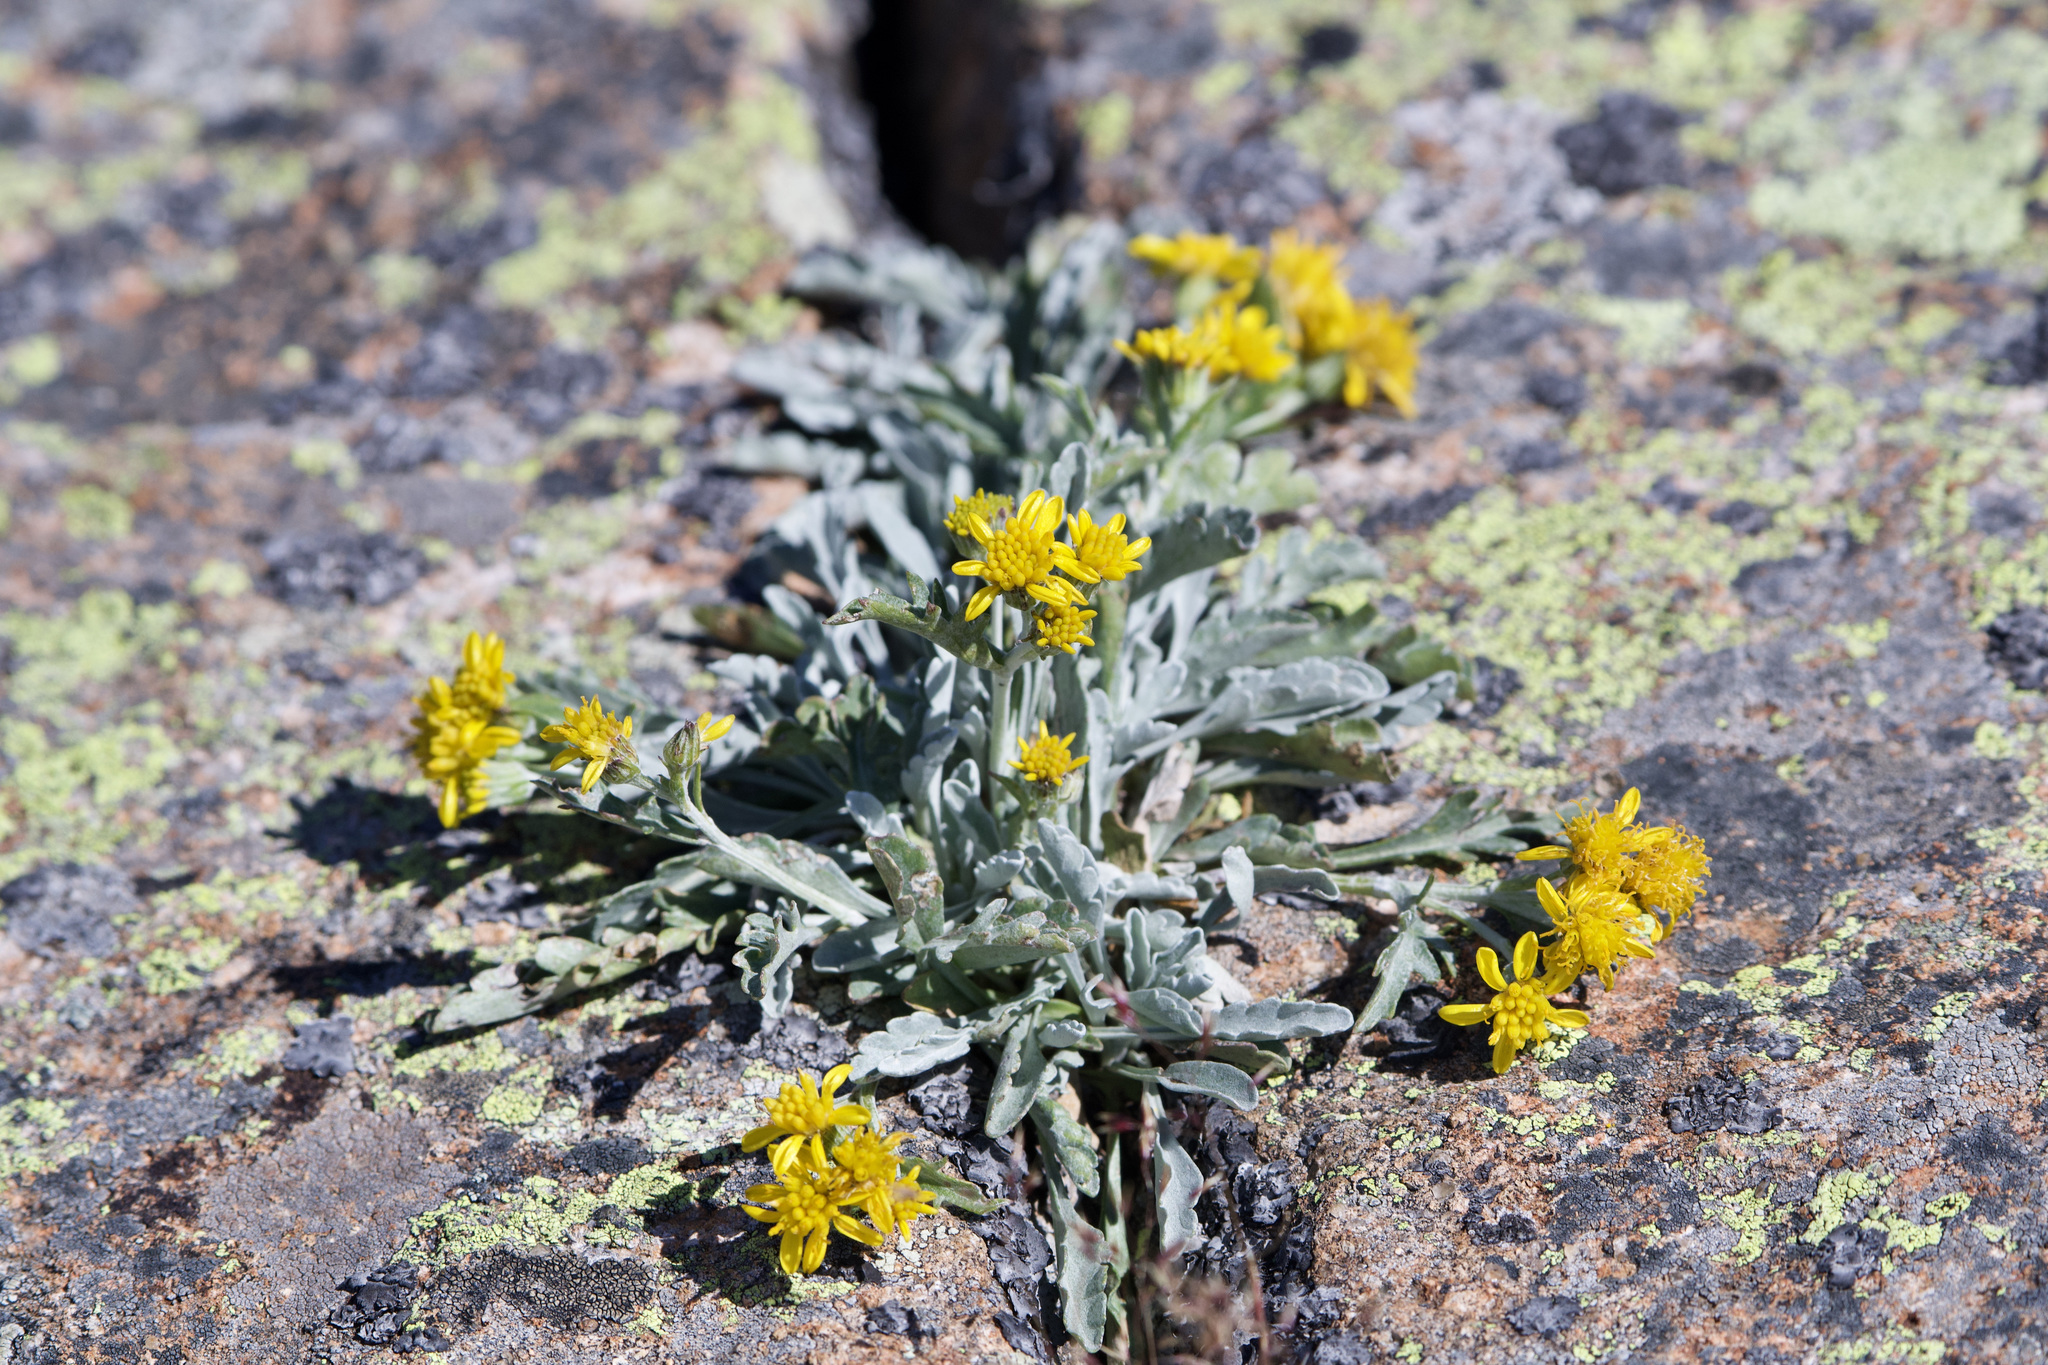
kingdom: Plantae
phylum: Tracheophyta
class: Magnoliopsida
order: Asterales
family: Asteraceae
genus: Jacobaea
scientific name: Jacobaea insubrica
